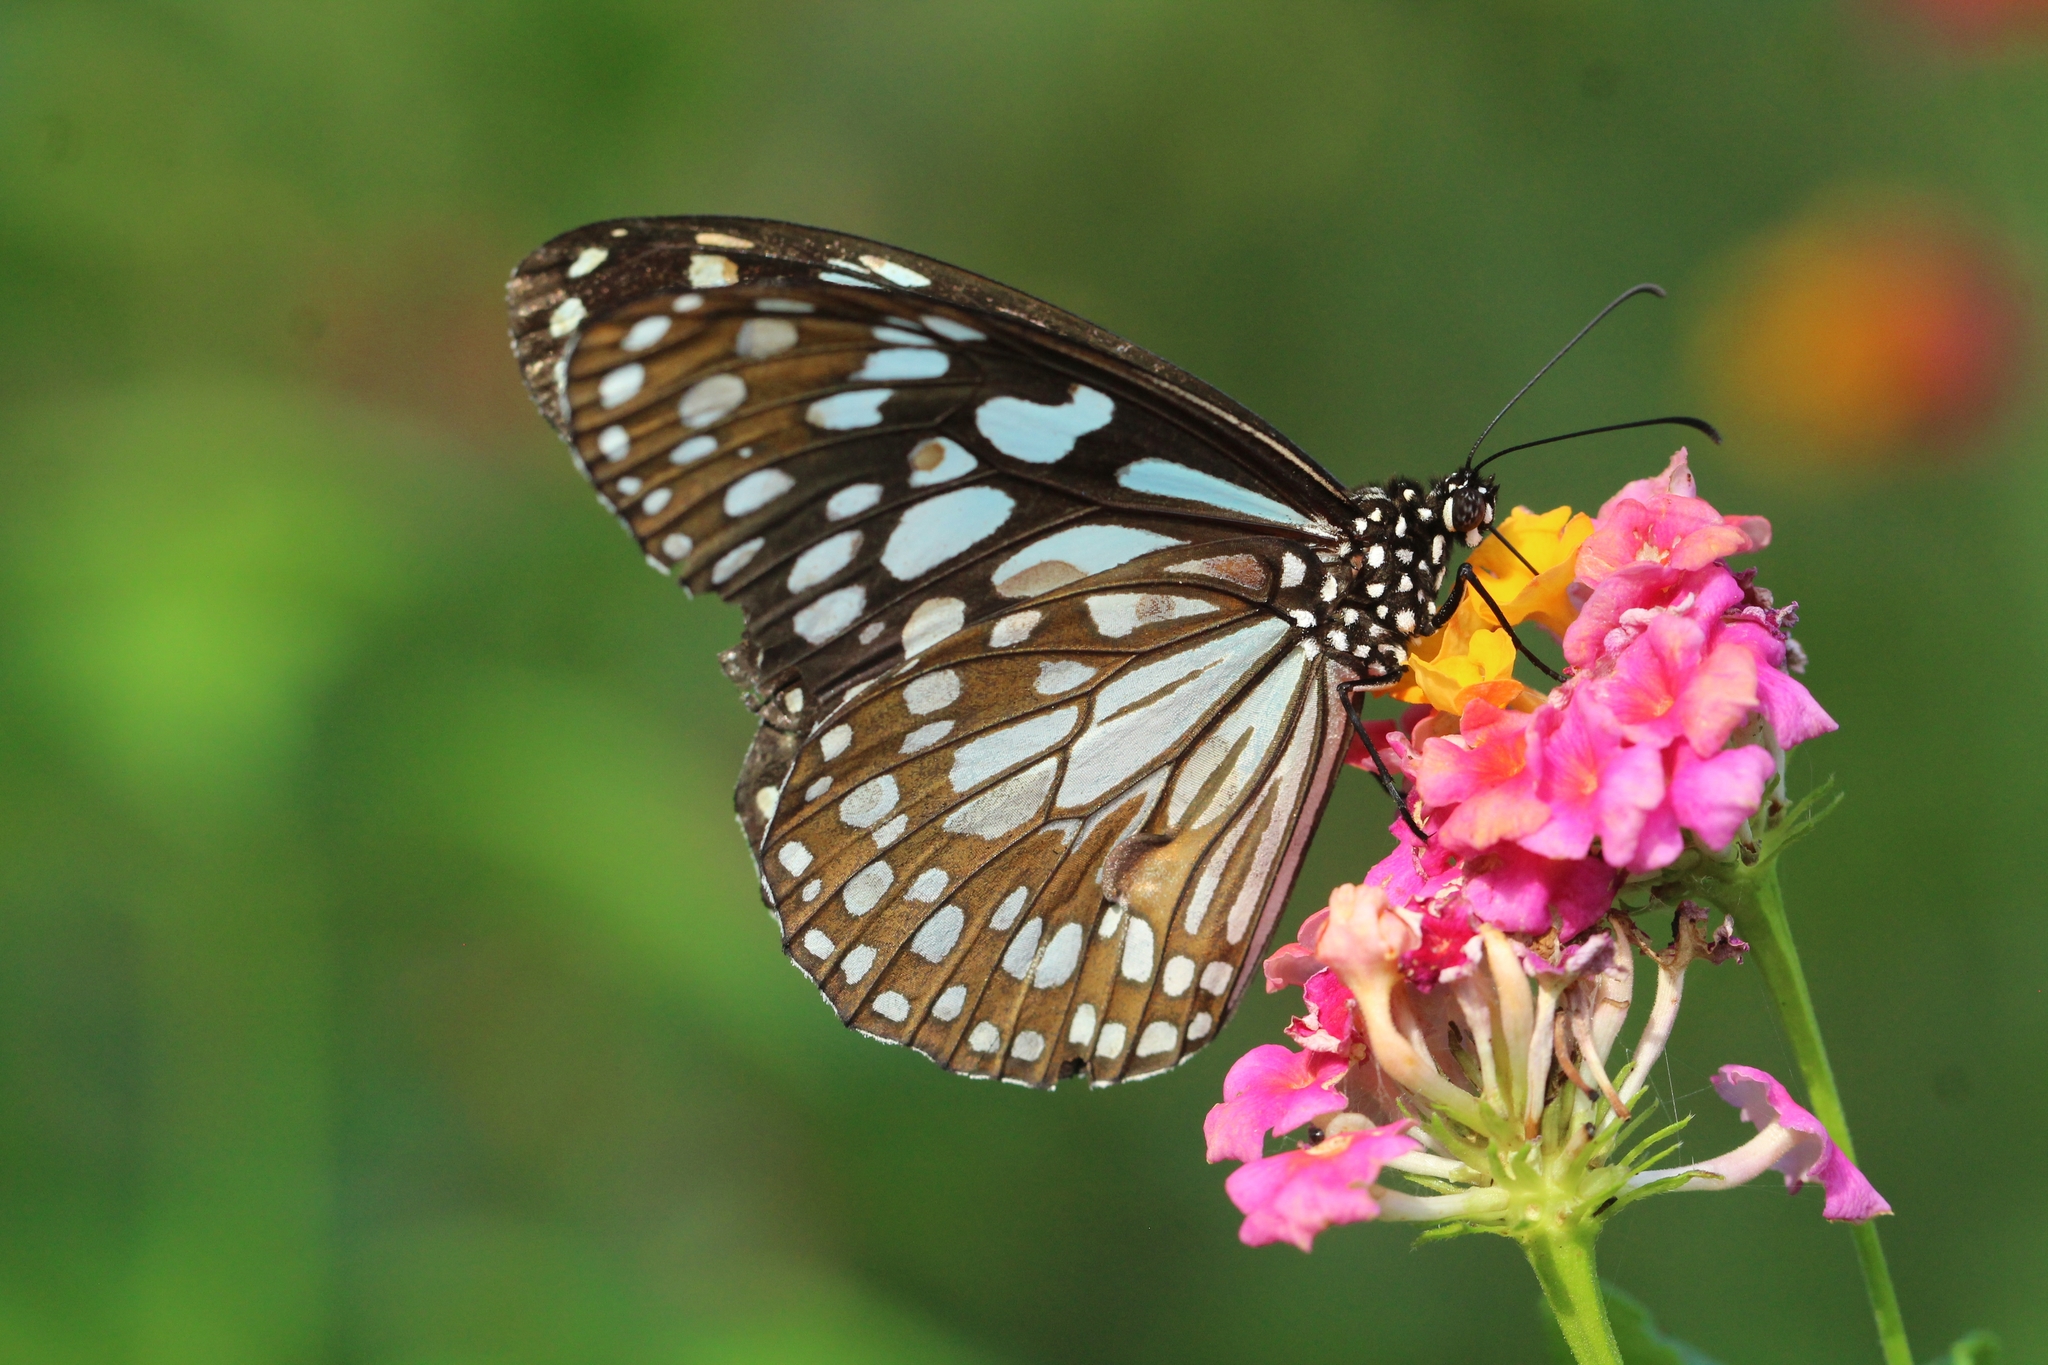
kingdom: Animalia
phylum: Arthropoda
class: Insecta
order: Lepidoptera
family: Nymphalidae
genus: Tirumala
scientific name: Tirumala limniace
